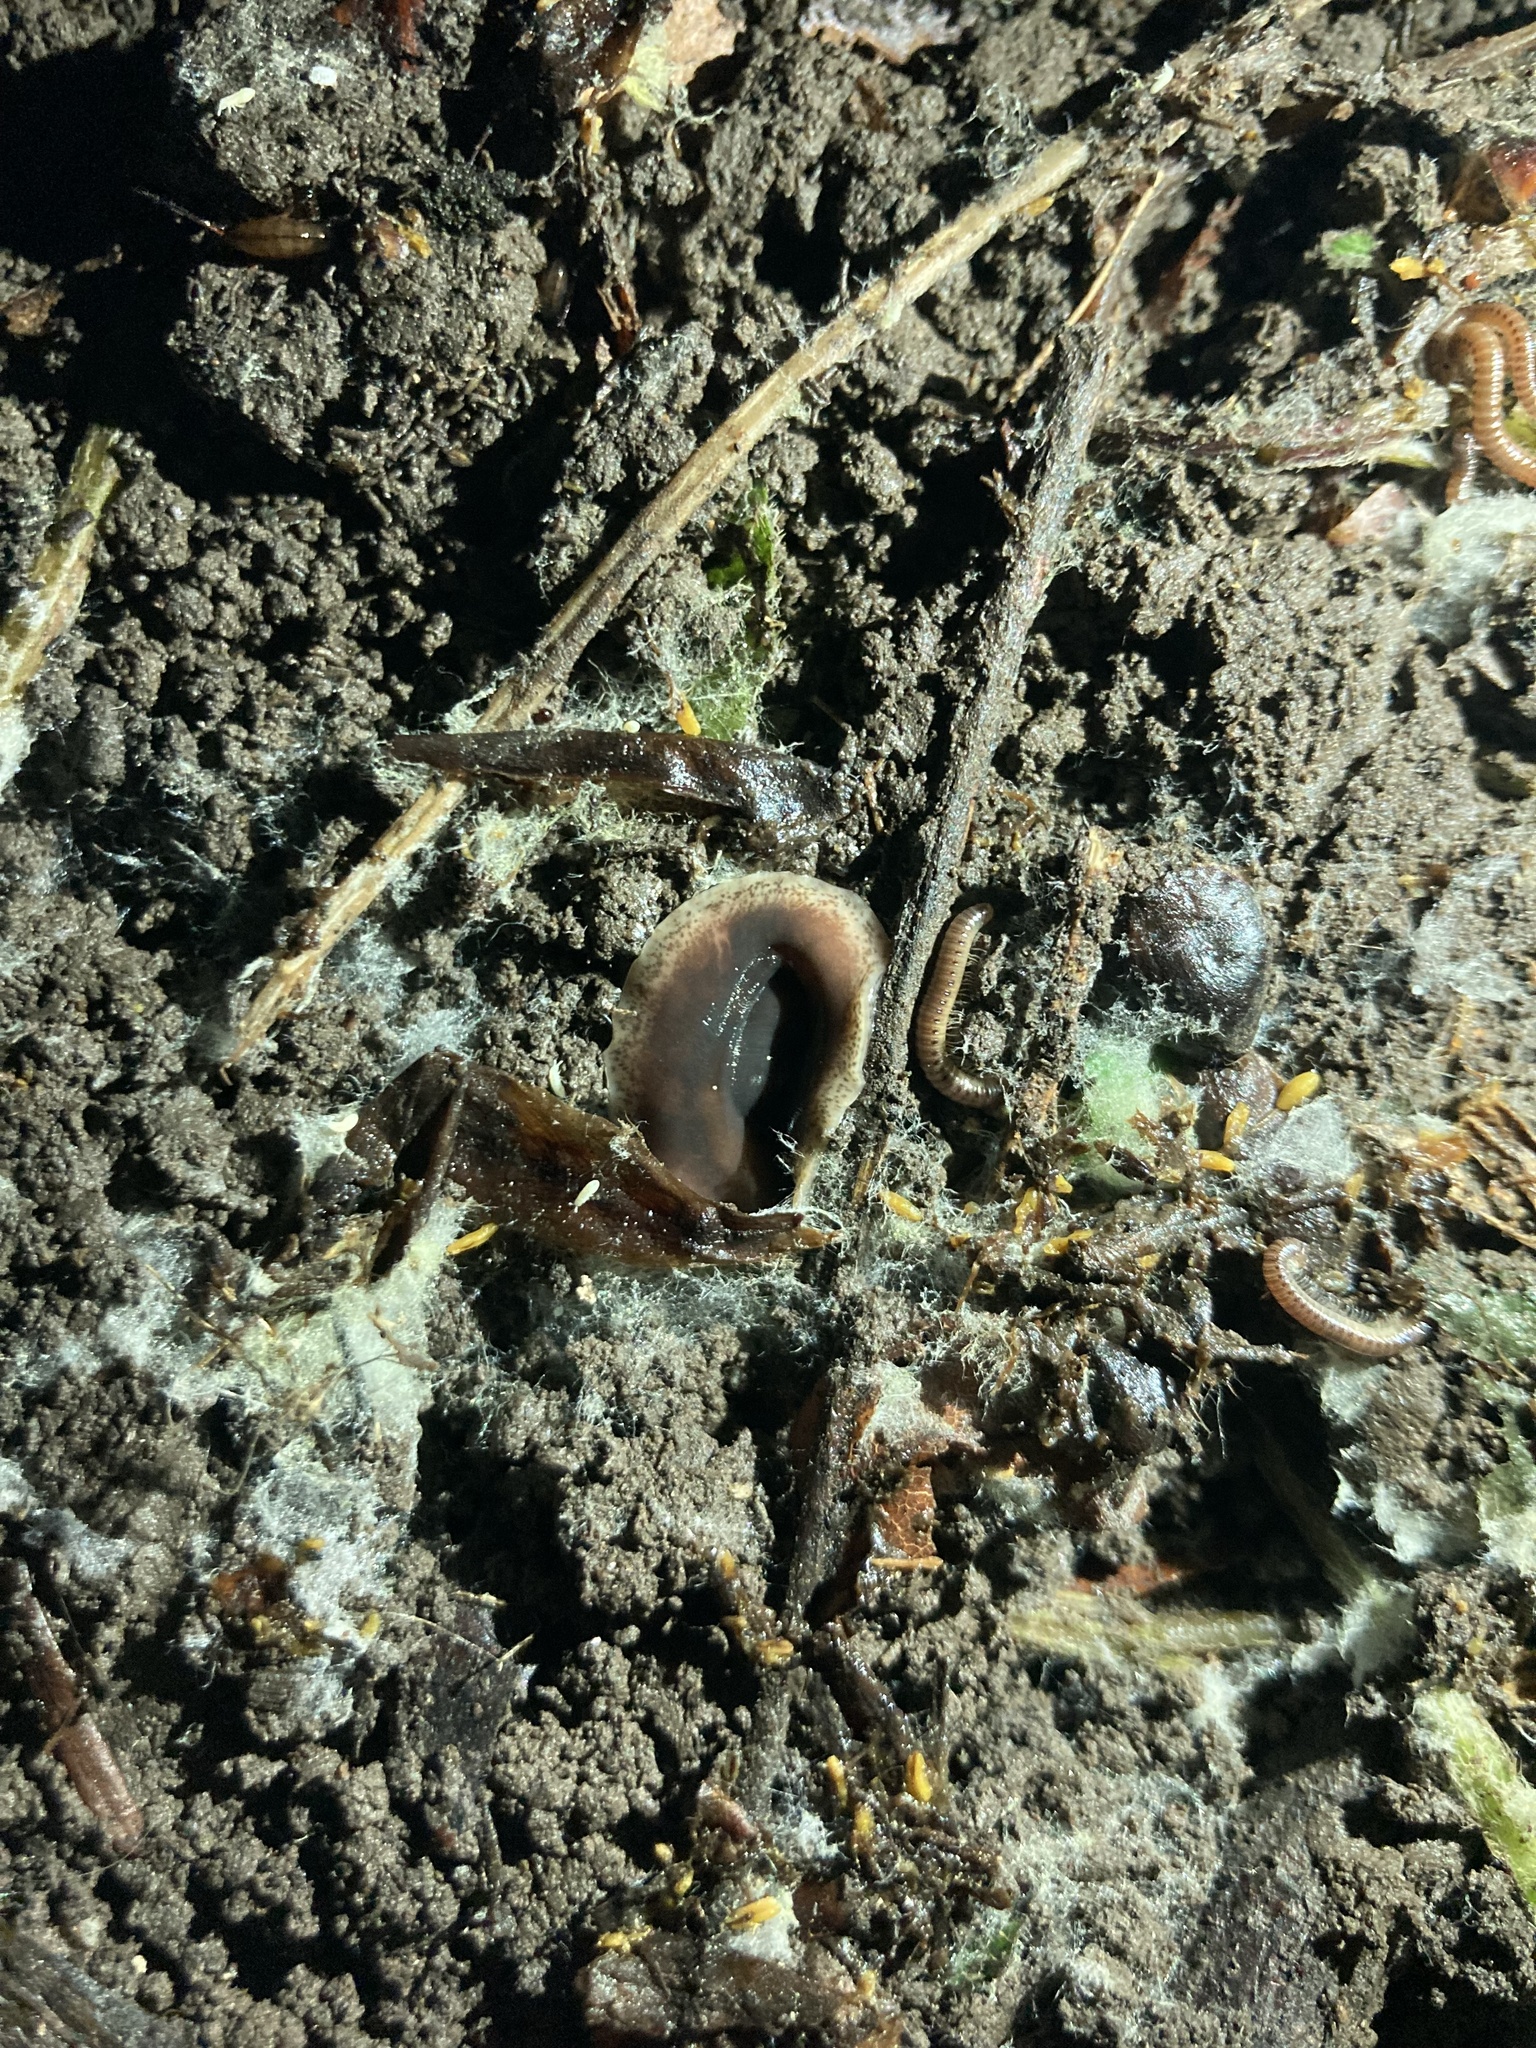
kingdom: Animalia
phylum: Platyhelminthes
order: Tricladida
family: Geoplanidae
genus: Arthurdendyus
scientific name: Arthurdendyus triangulatus
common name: New zealand flatworm
